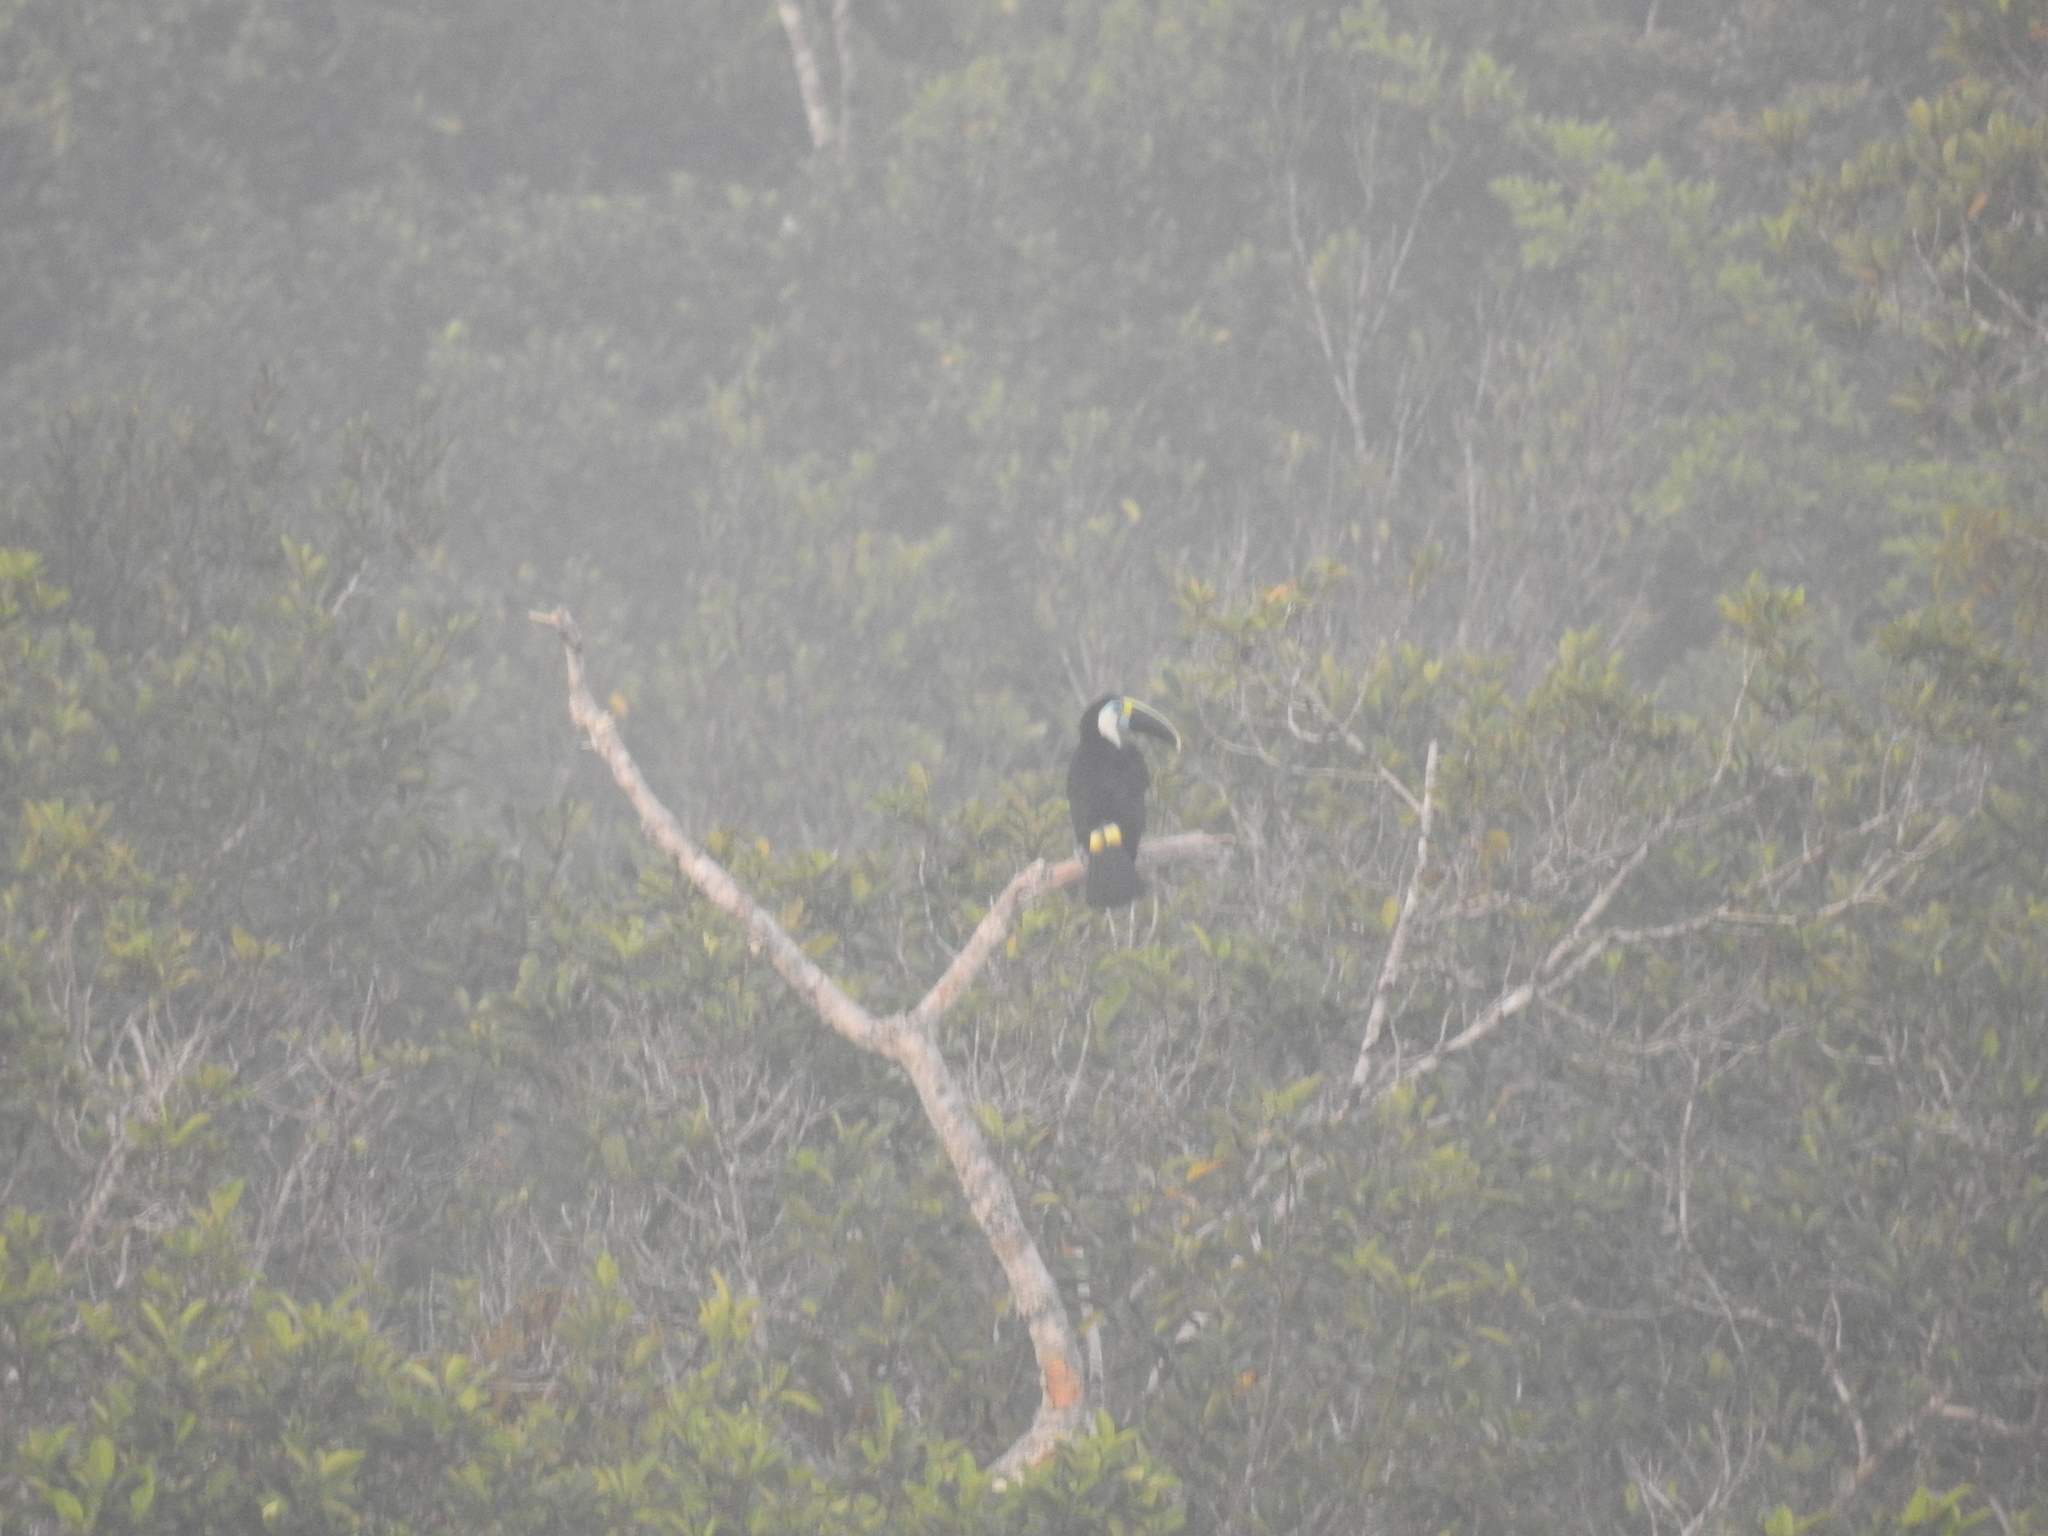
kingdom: Animalia
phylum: Chordata
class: Aves
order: Piciformes
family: Ramphastidae
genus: Ramphastos
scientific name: Ramphastos tucanus
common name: White-throated toucan
